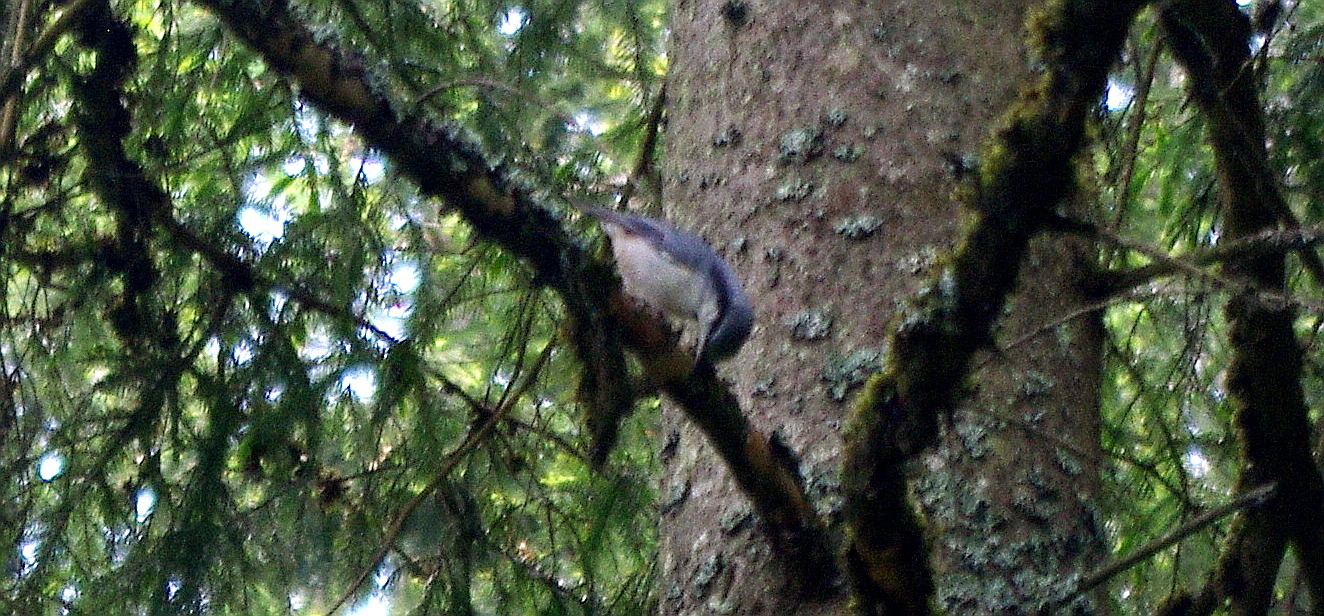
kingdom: Plantae
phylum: Tracheophyta
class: Pinopsida
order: Pinales
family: Pinaceae
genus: Picea
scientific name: Picea abies
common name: Norway spruce
